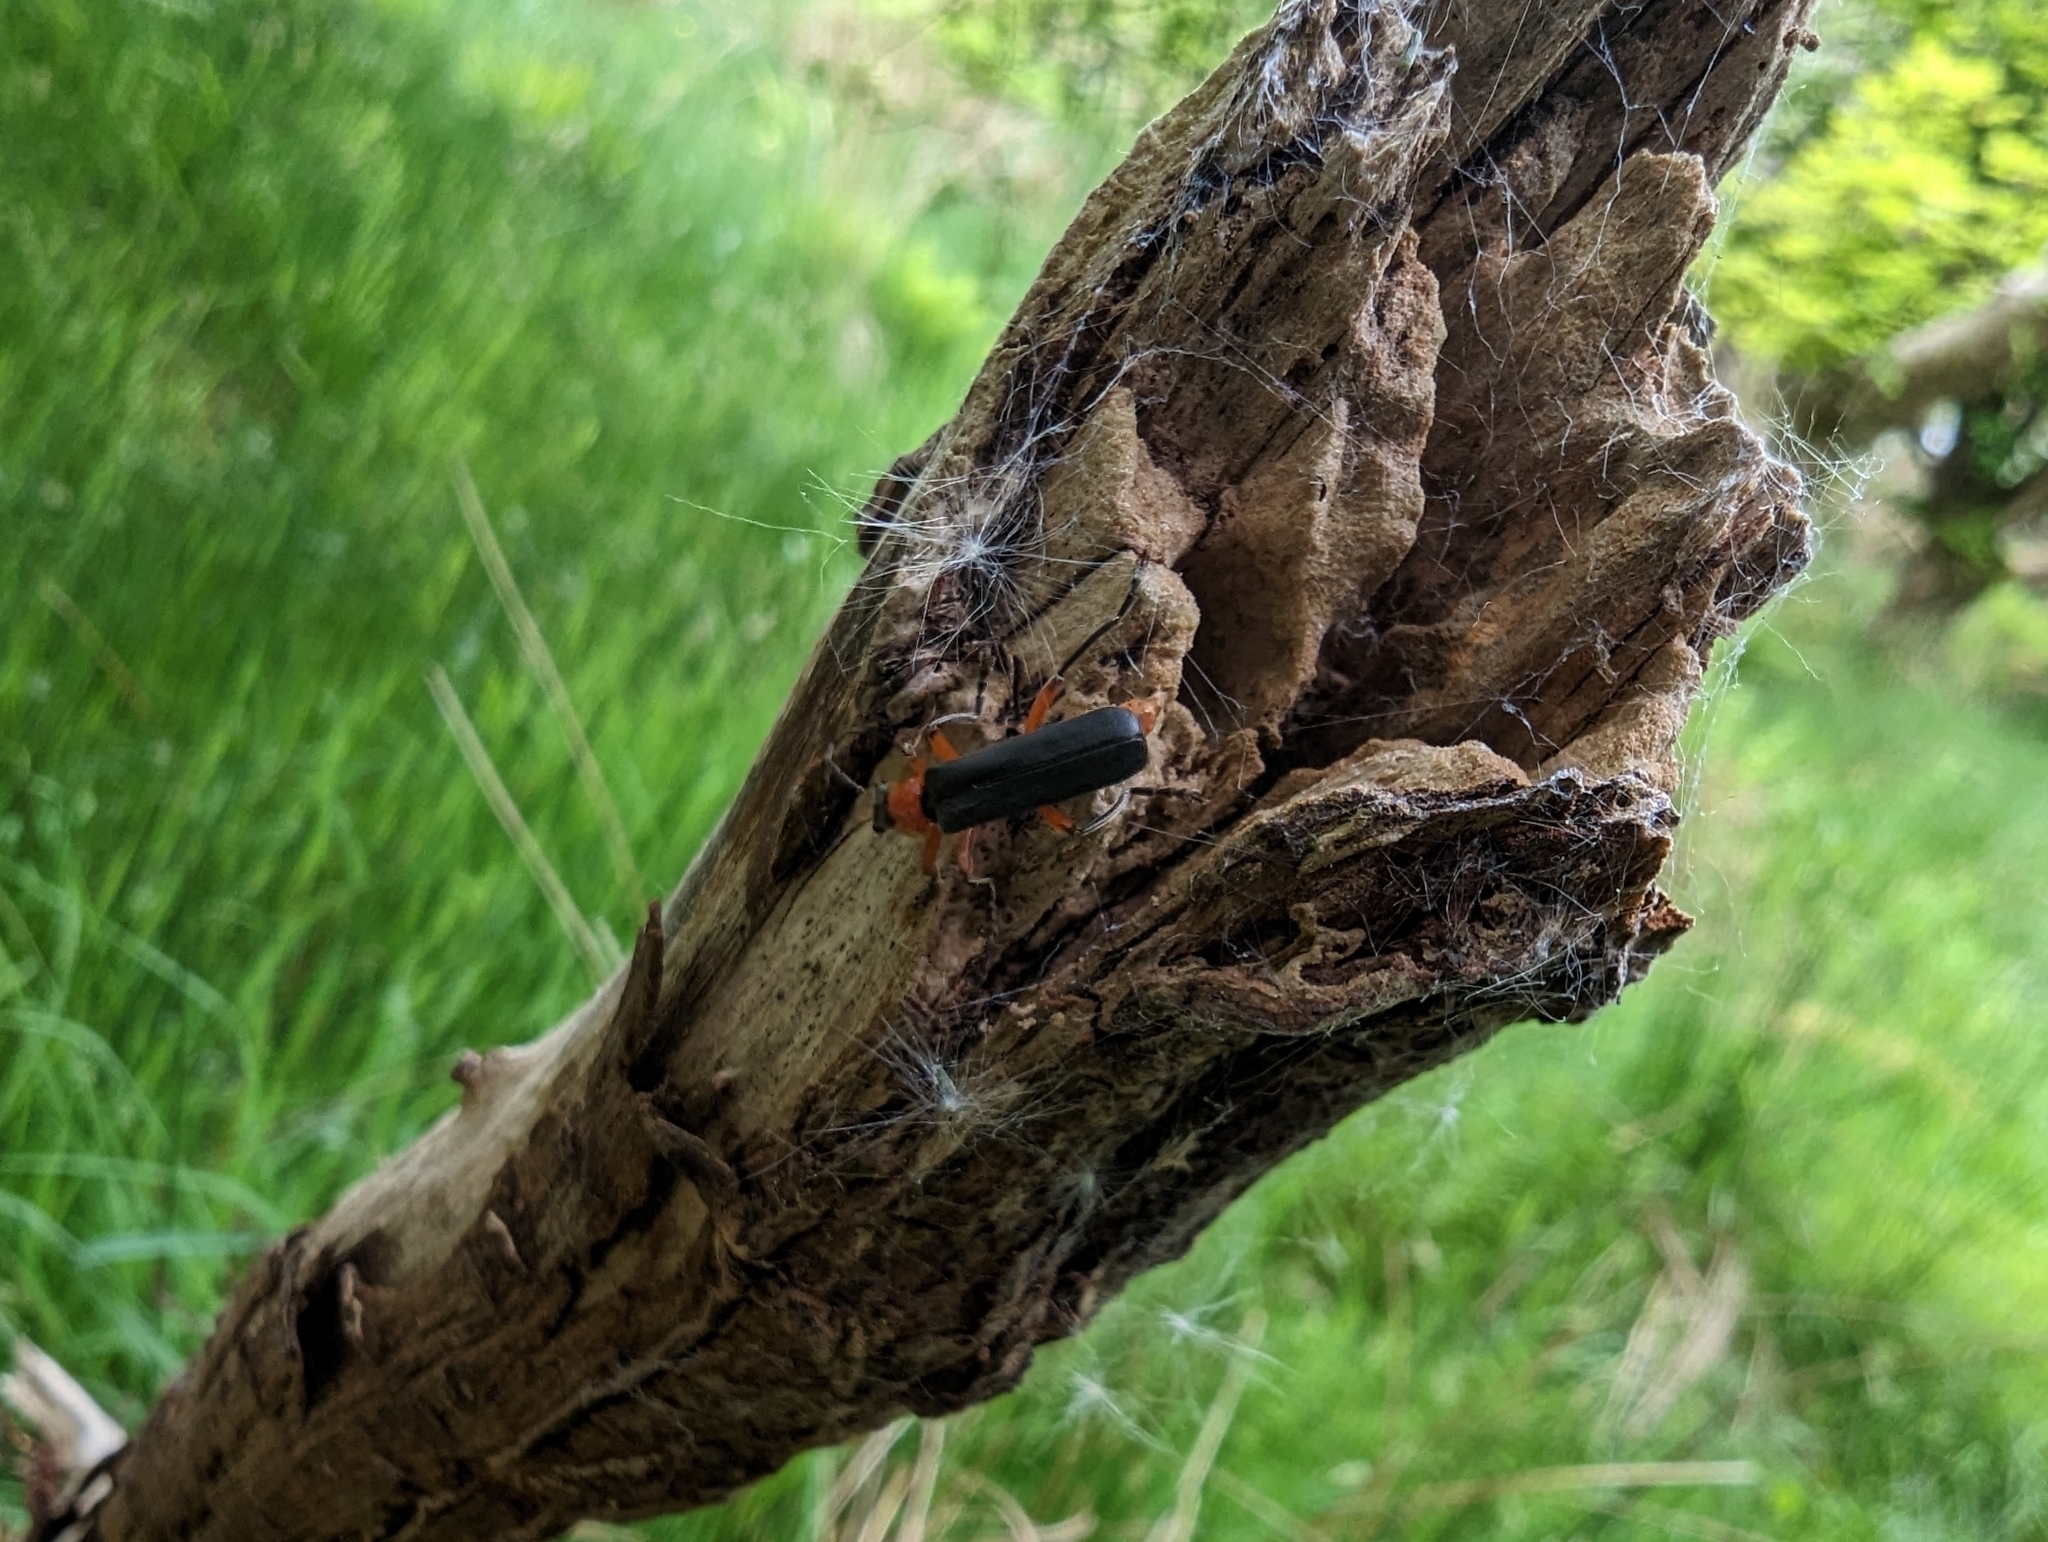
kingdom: Animalia
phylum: Arthropoda
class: Insecta
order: Coleoptera
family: Cantharidae
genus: Cantharis
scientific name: Cantharis pellucida
